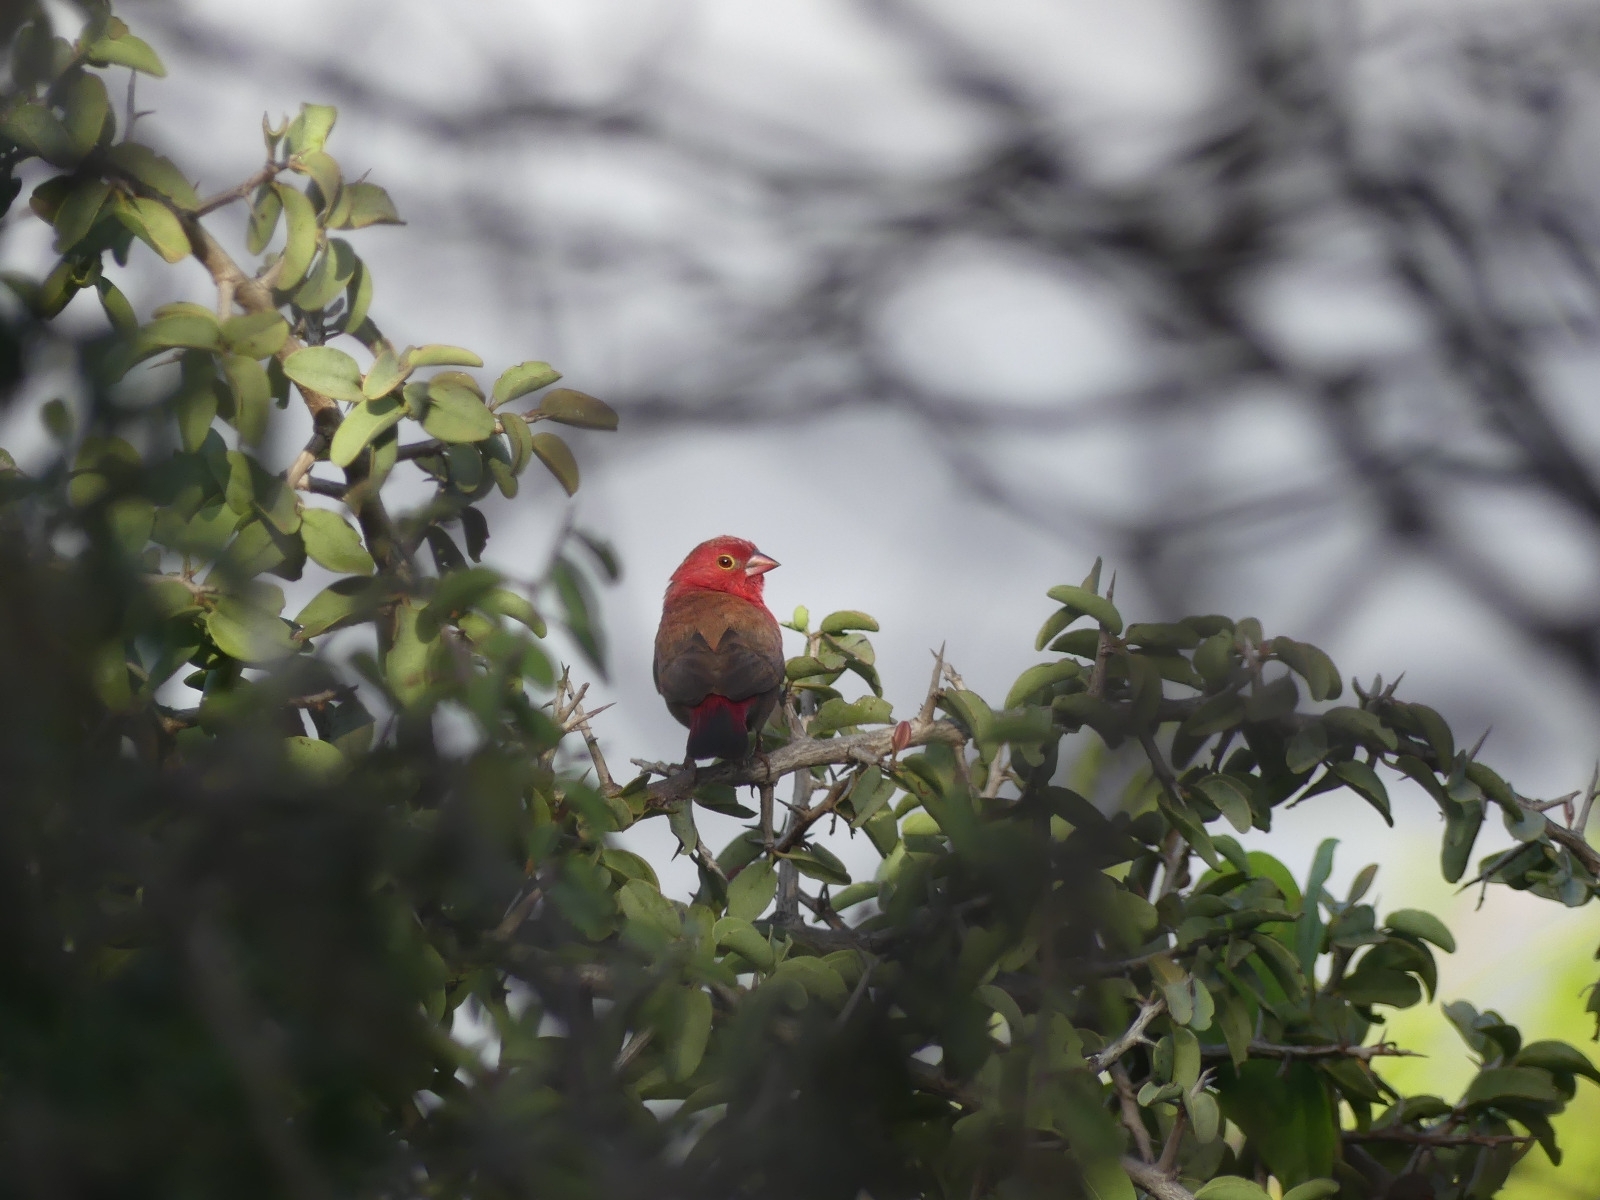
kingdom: Animalia
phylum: Chordata
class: Aves
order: Passeriformes
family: Estrildidae
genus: Lagonosticta
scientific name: Lagonosticta senegala
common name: Red-billed firefinch
